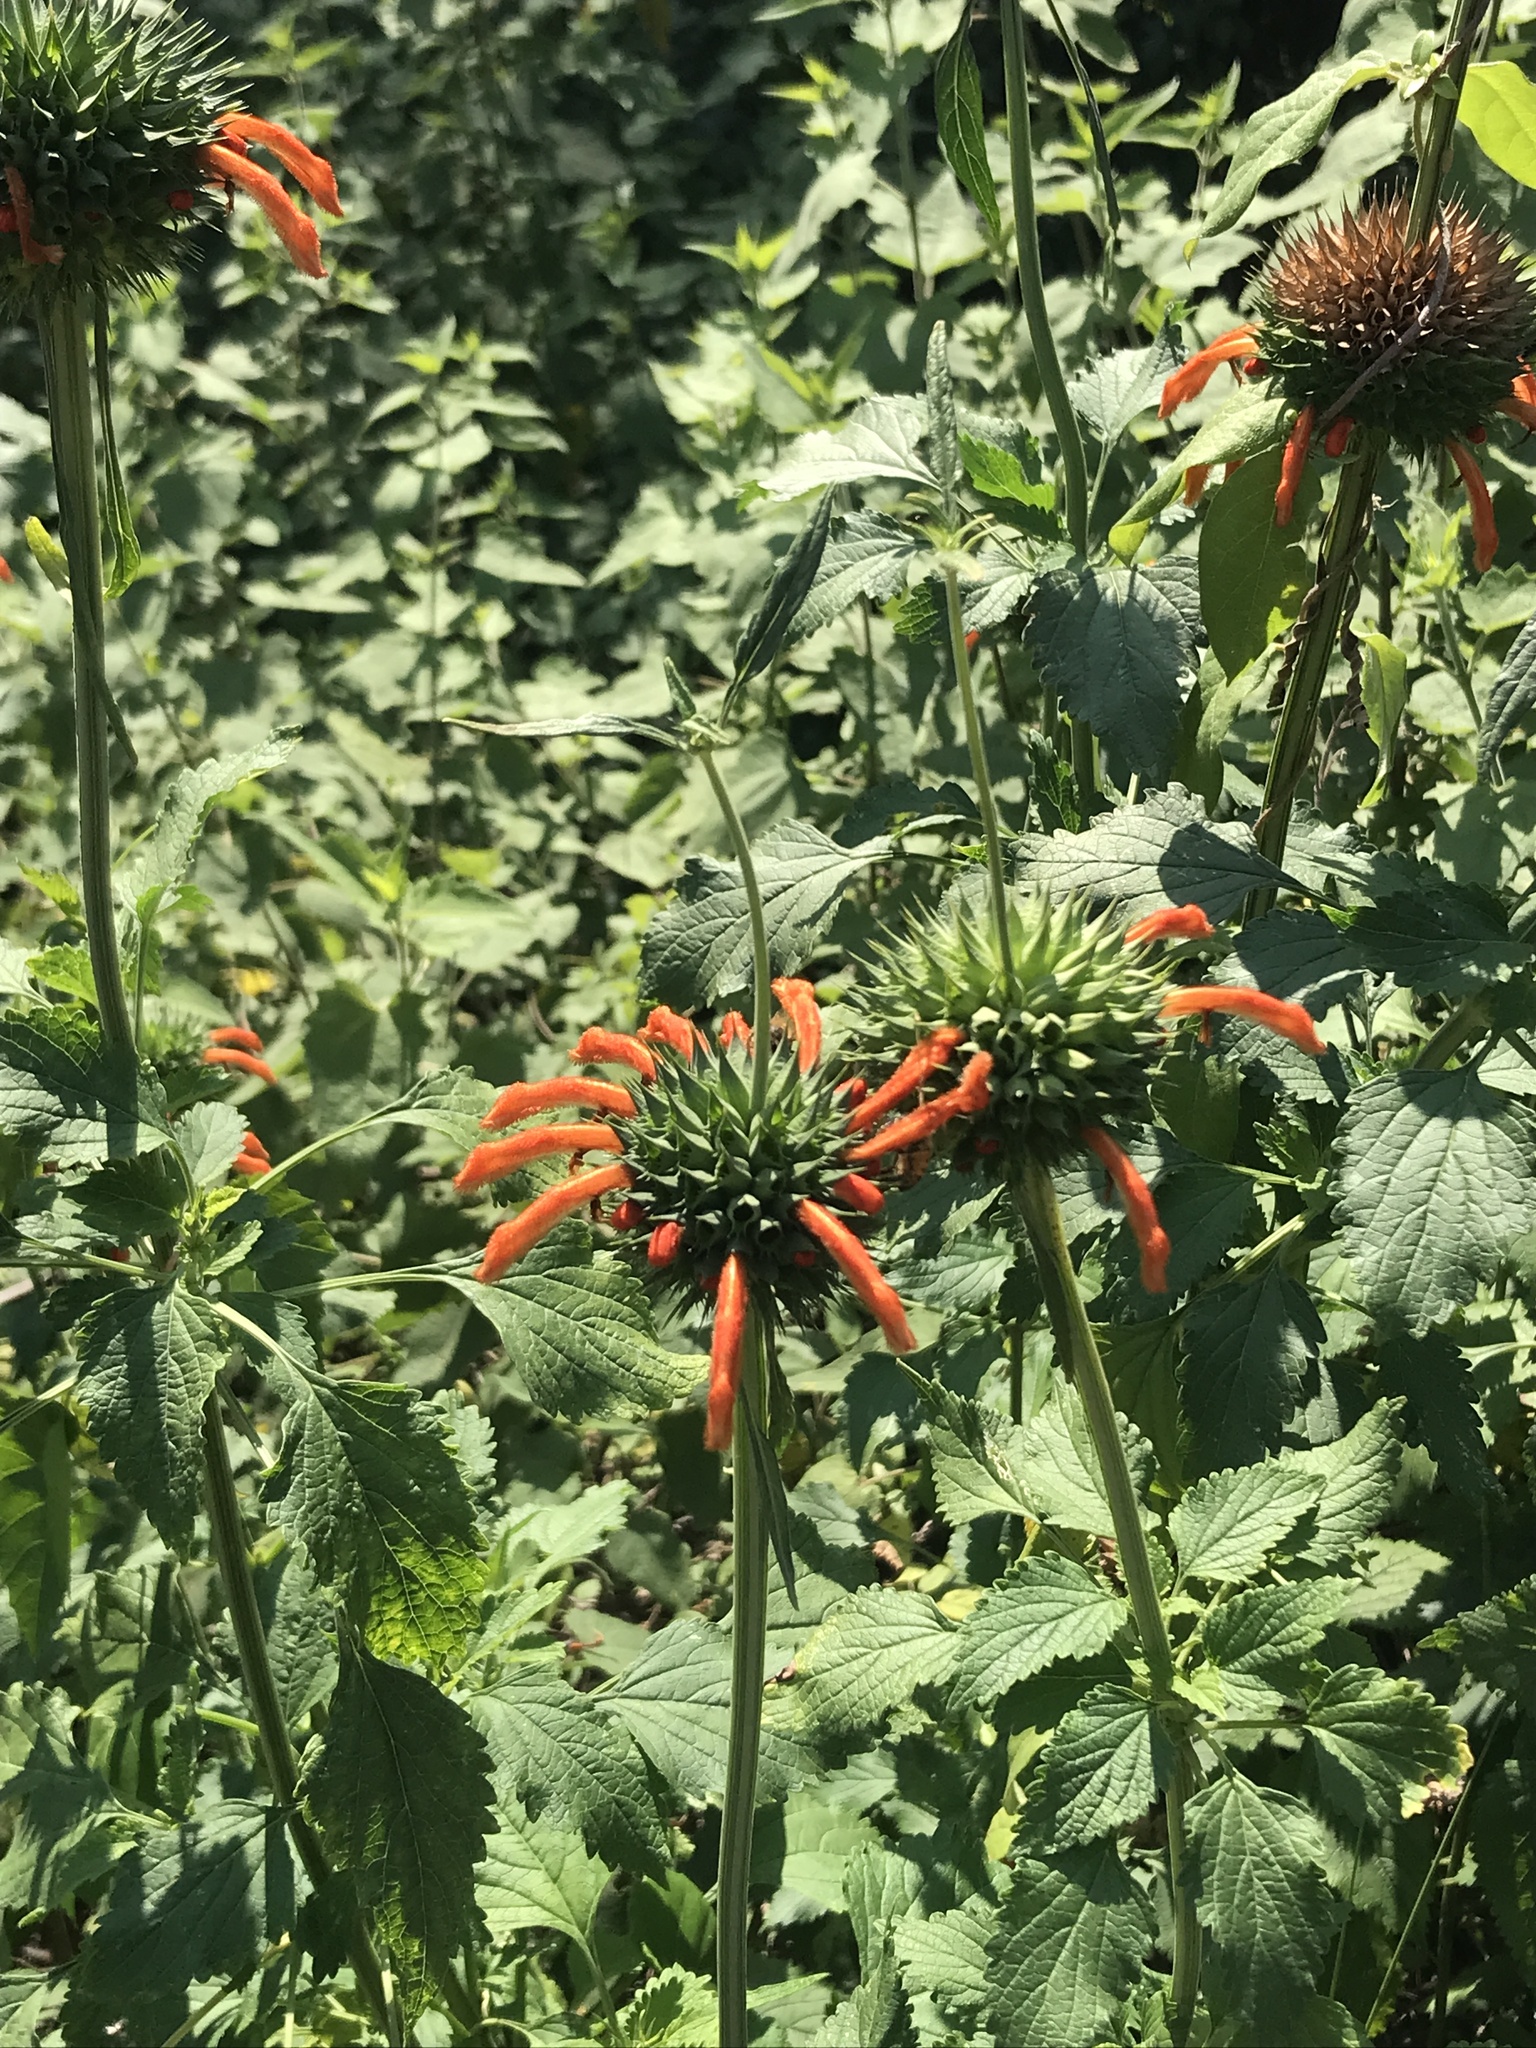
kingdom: Plantae
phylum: Tracheophyta
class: Magnoliopsida
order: Lamiales
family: Lamiaceae
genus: Leonotis
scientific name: Leonotis nepetifolia
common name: Christmas candlestick
